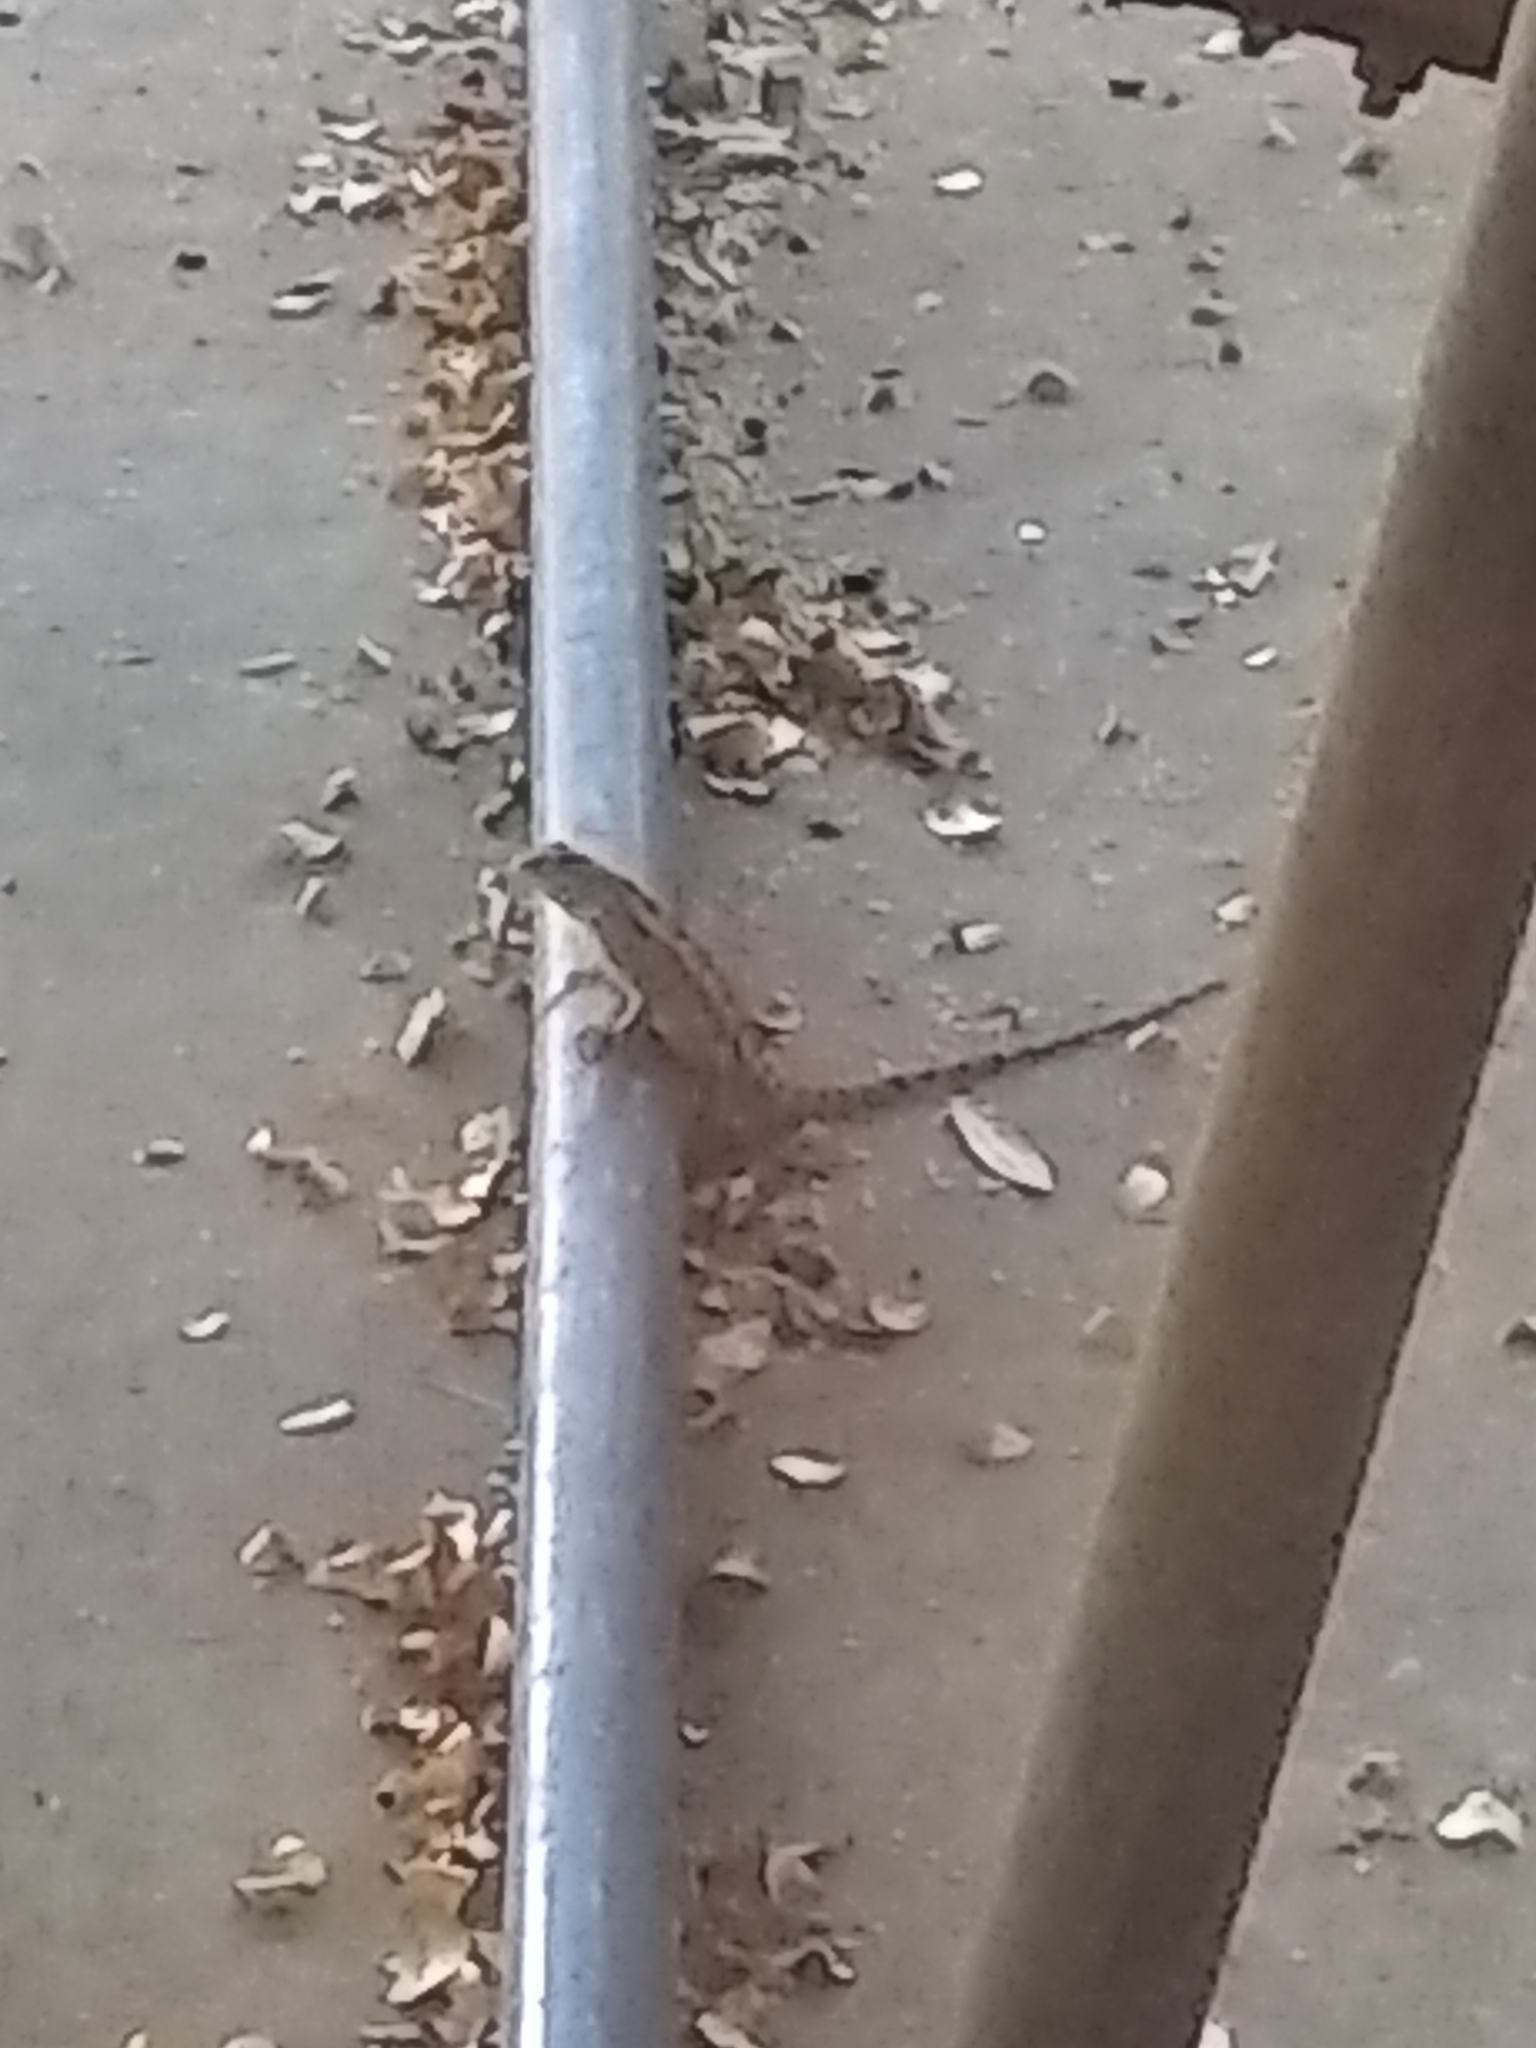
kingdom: Animalia
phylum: Chordata
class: Squamata
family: Phrynosomatidae
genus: Sceloporus
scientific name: Sceloporus olivaceus
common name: Texas spiny lizard
